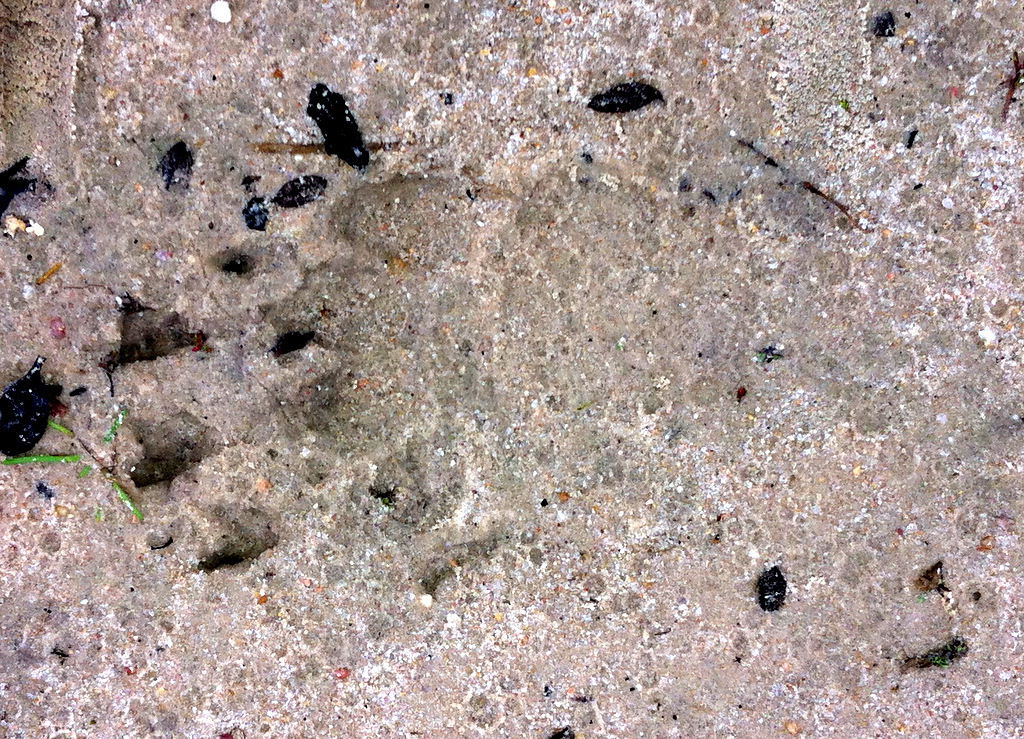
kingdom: Animalia
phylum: Chordata
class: Mammalia
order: Carnivora
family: Mustelidae
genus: Meles
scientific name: Meles meles
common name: Eurasian badger
